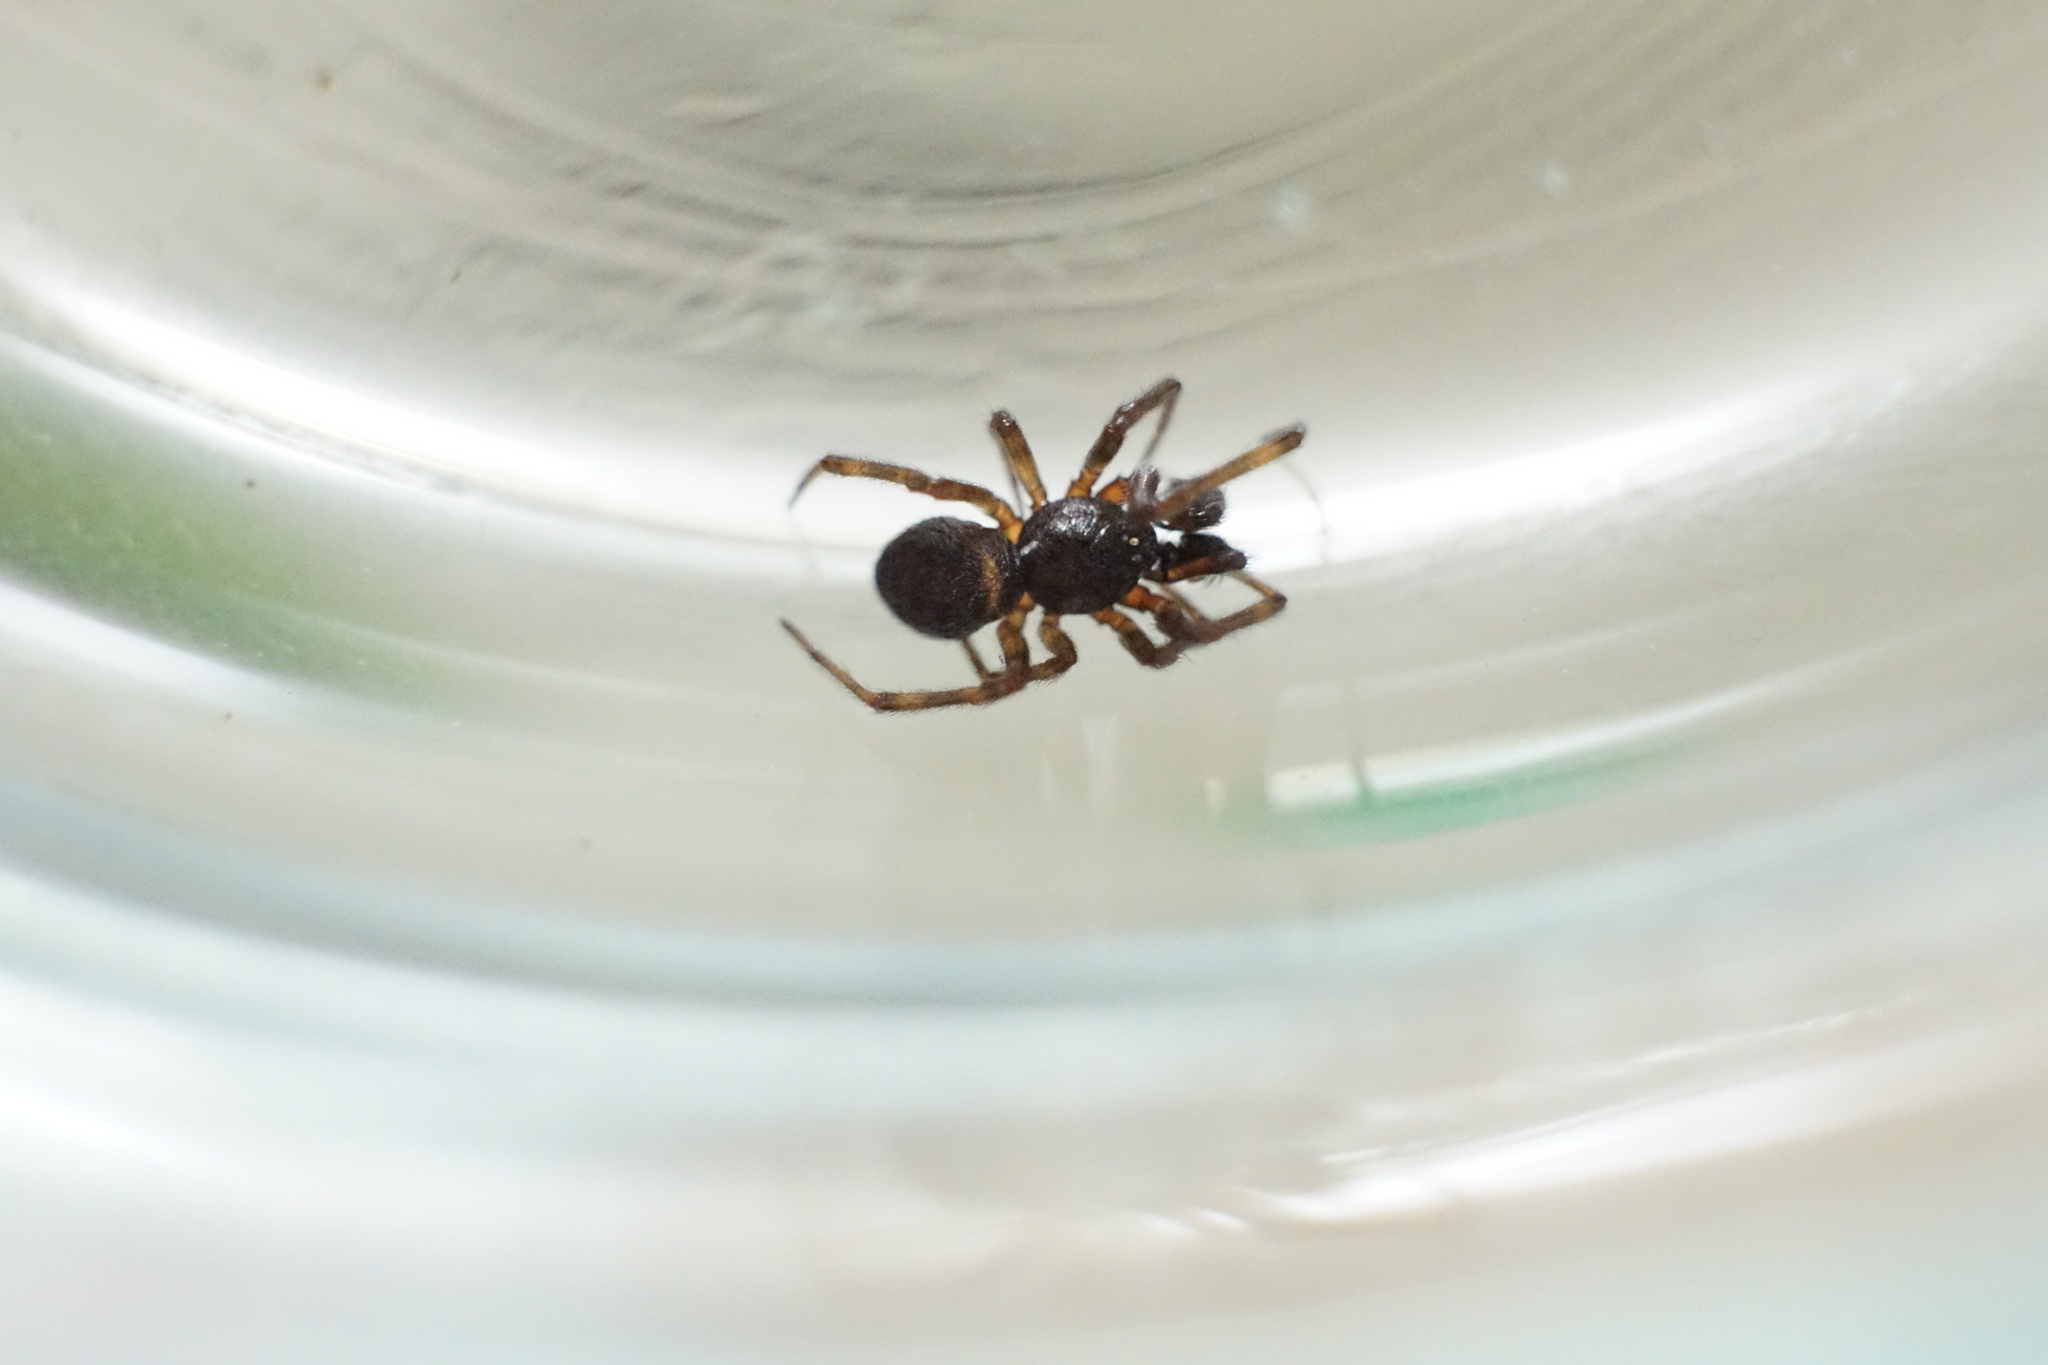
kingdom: Animalia
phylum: Arthropoda
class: Arachnida
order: Araneae
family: Theridiidae
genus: Steatoda
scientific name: Steatoda borealis
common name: Boreal combfoot
